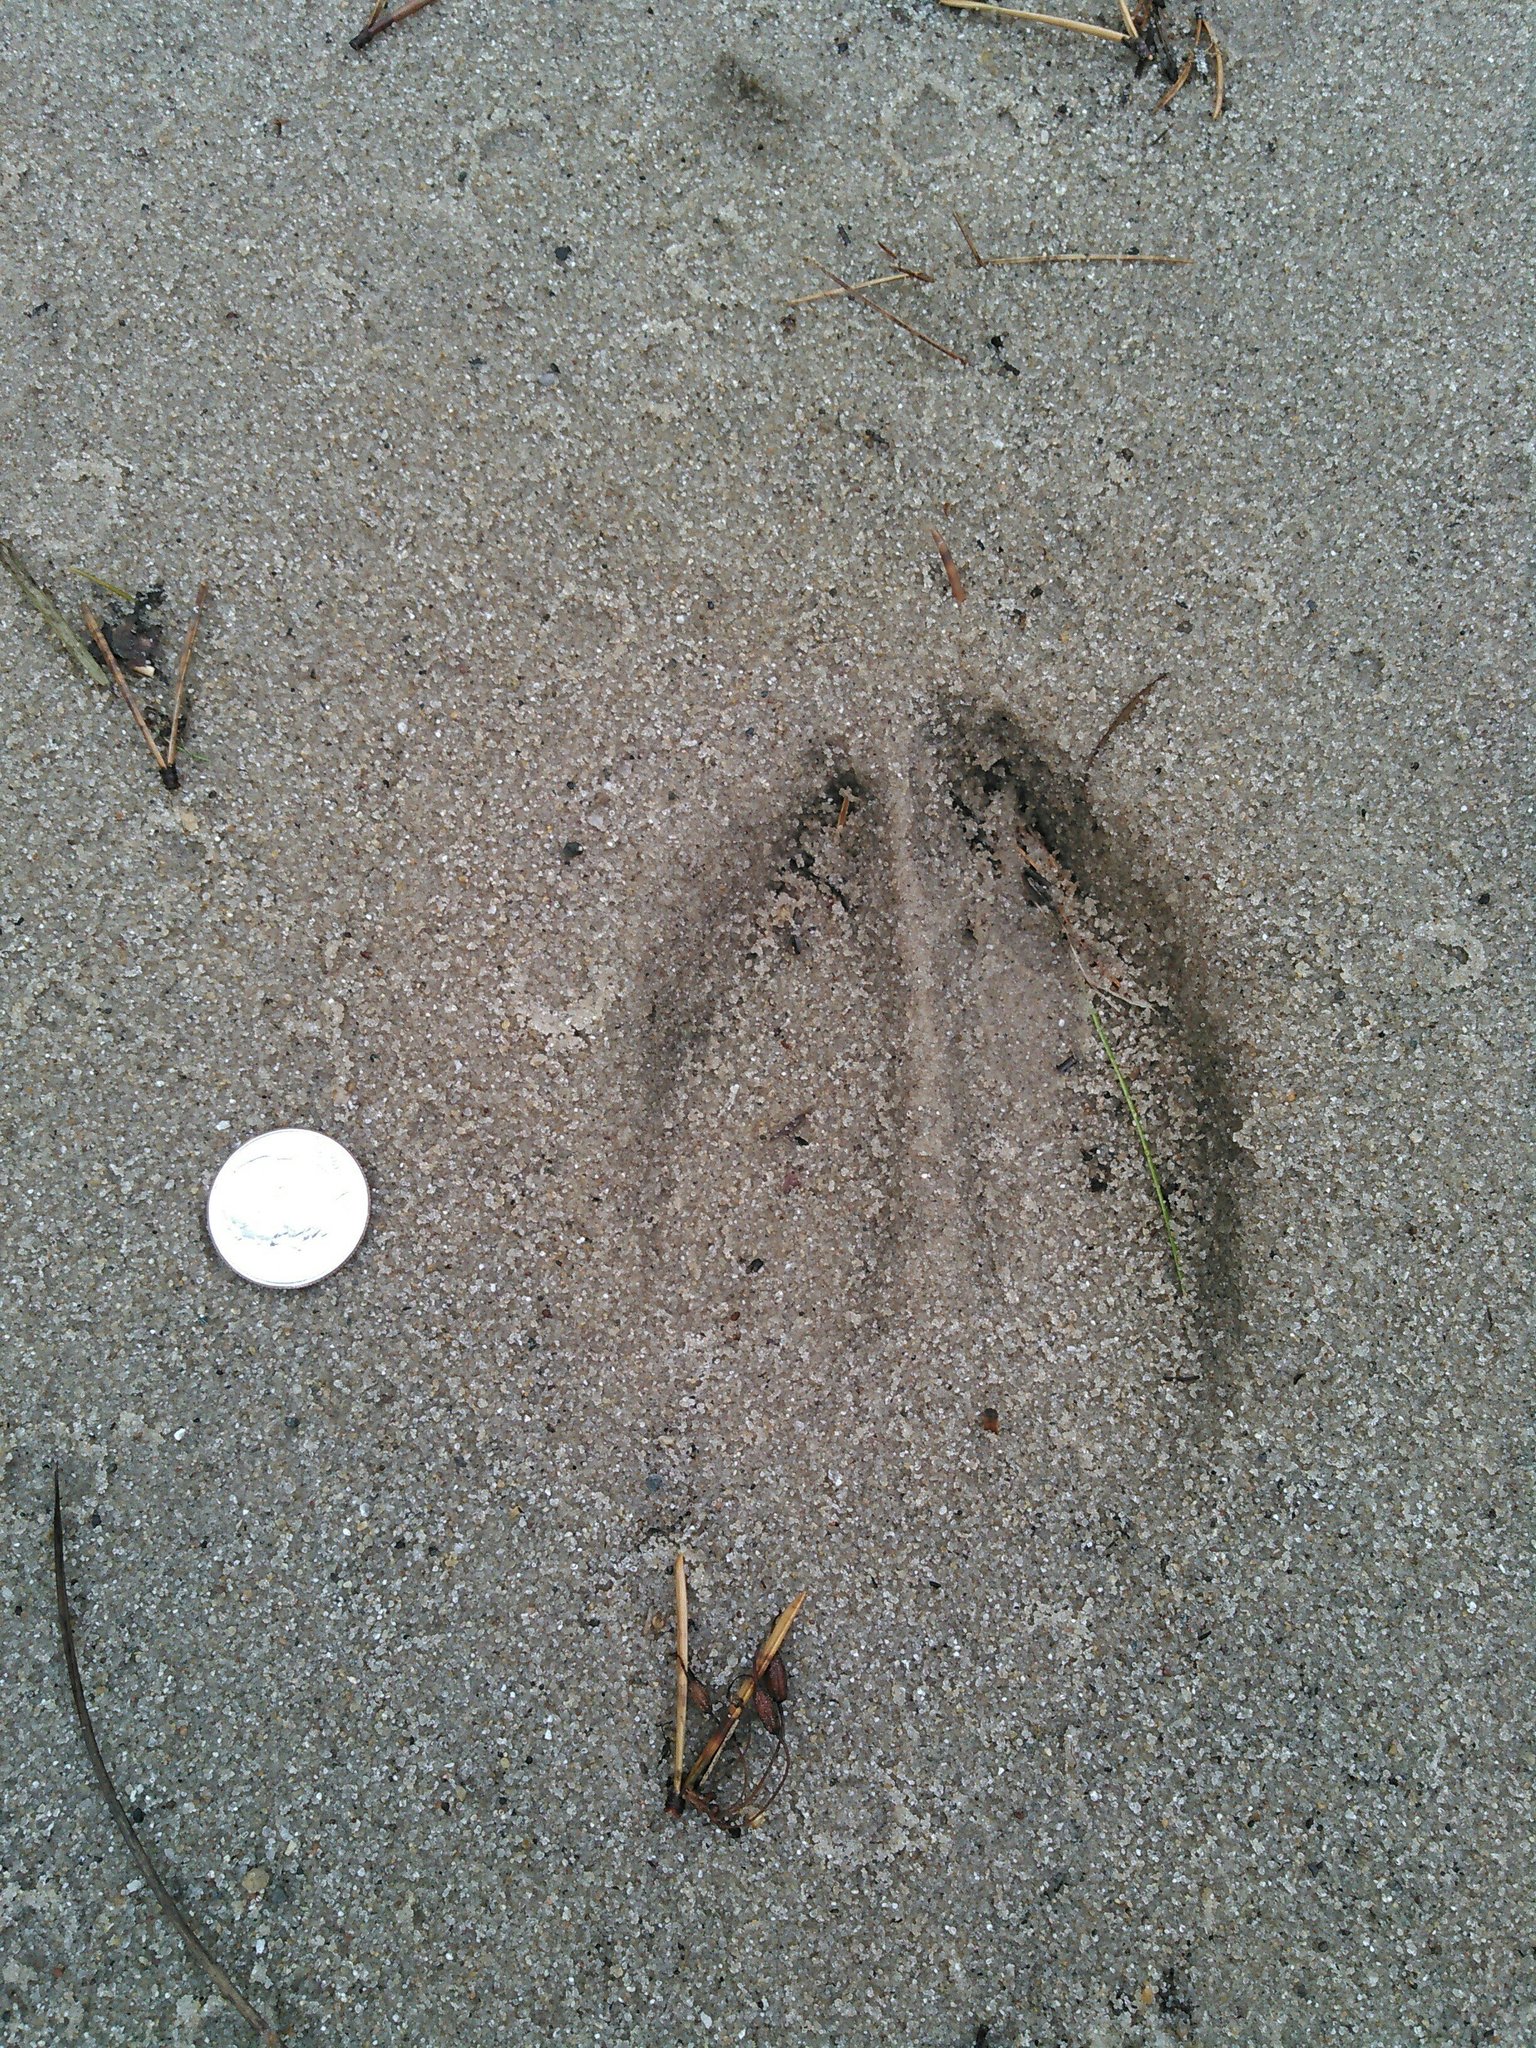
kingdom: Animalia
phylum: Chordata
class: Mammalia
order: Artiodactyla
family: Cervidae
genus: Odocoileus
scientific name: Odocoileus virginianus
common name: White-tailed deer
